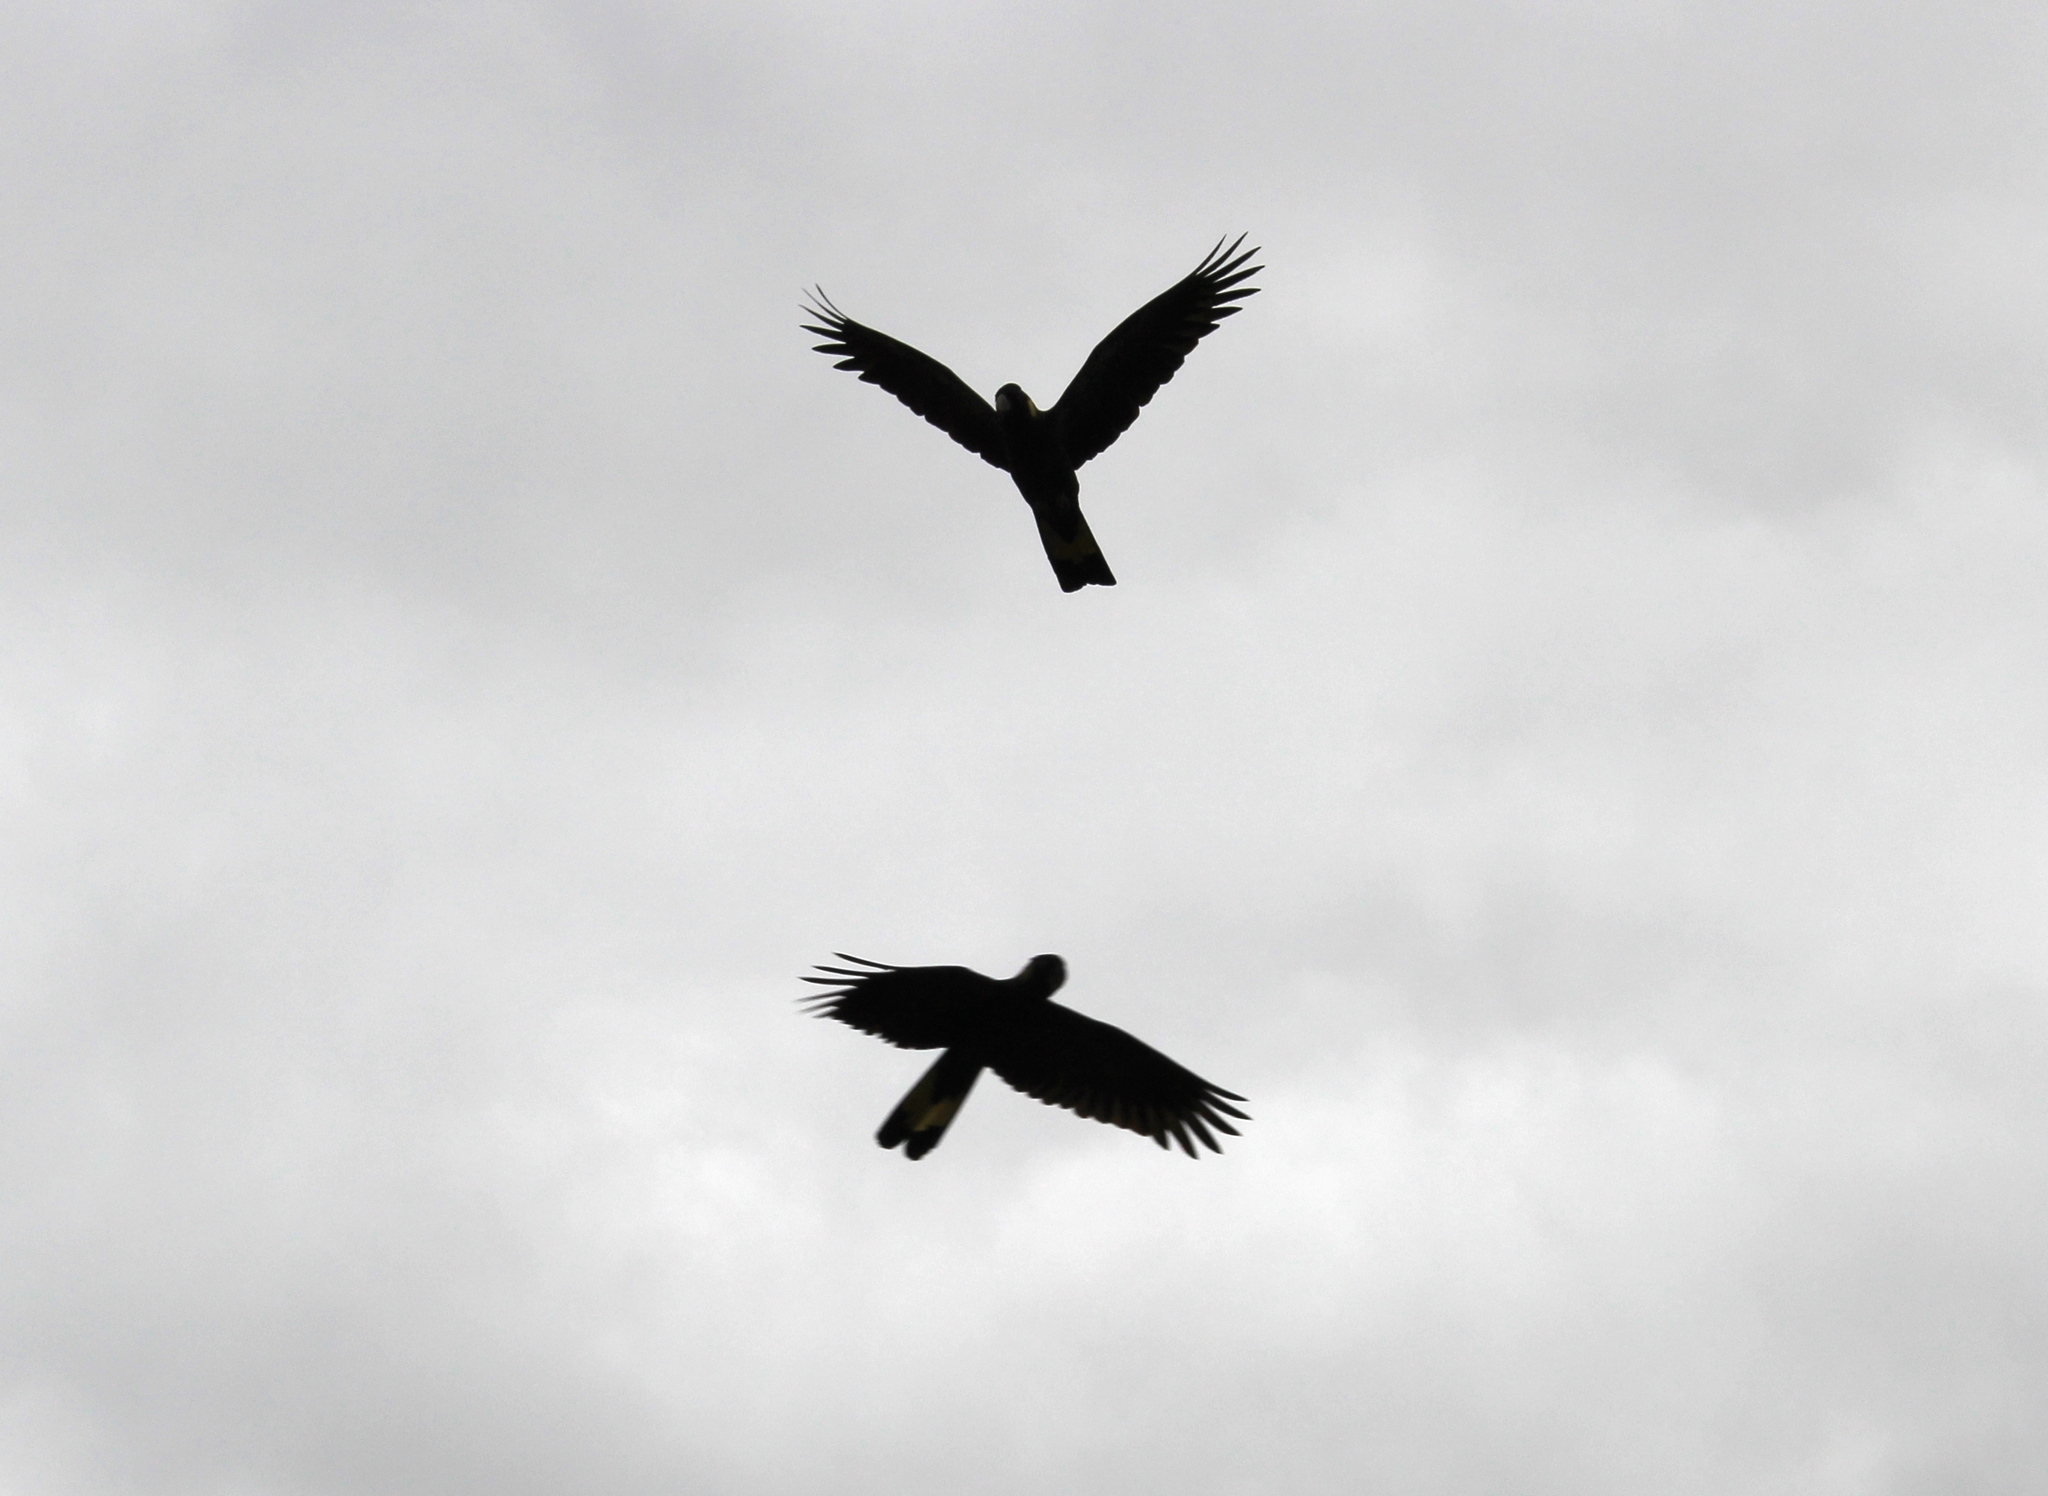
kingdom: Animalia
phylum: Chordata
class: Aves
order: Psittaciformes
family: Cacatuidae
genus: Zanda
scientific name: Zanda funerea
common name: Yellow-tailed black-cockatoo
